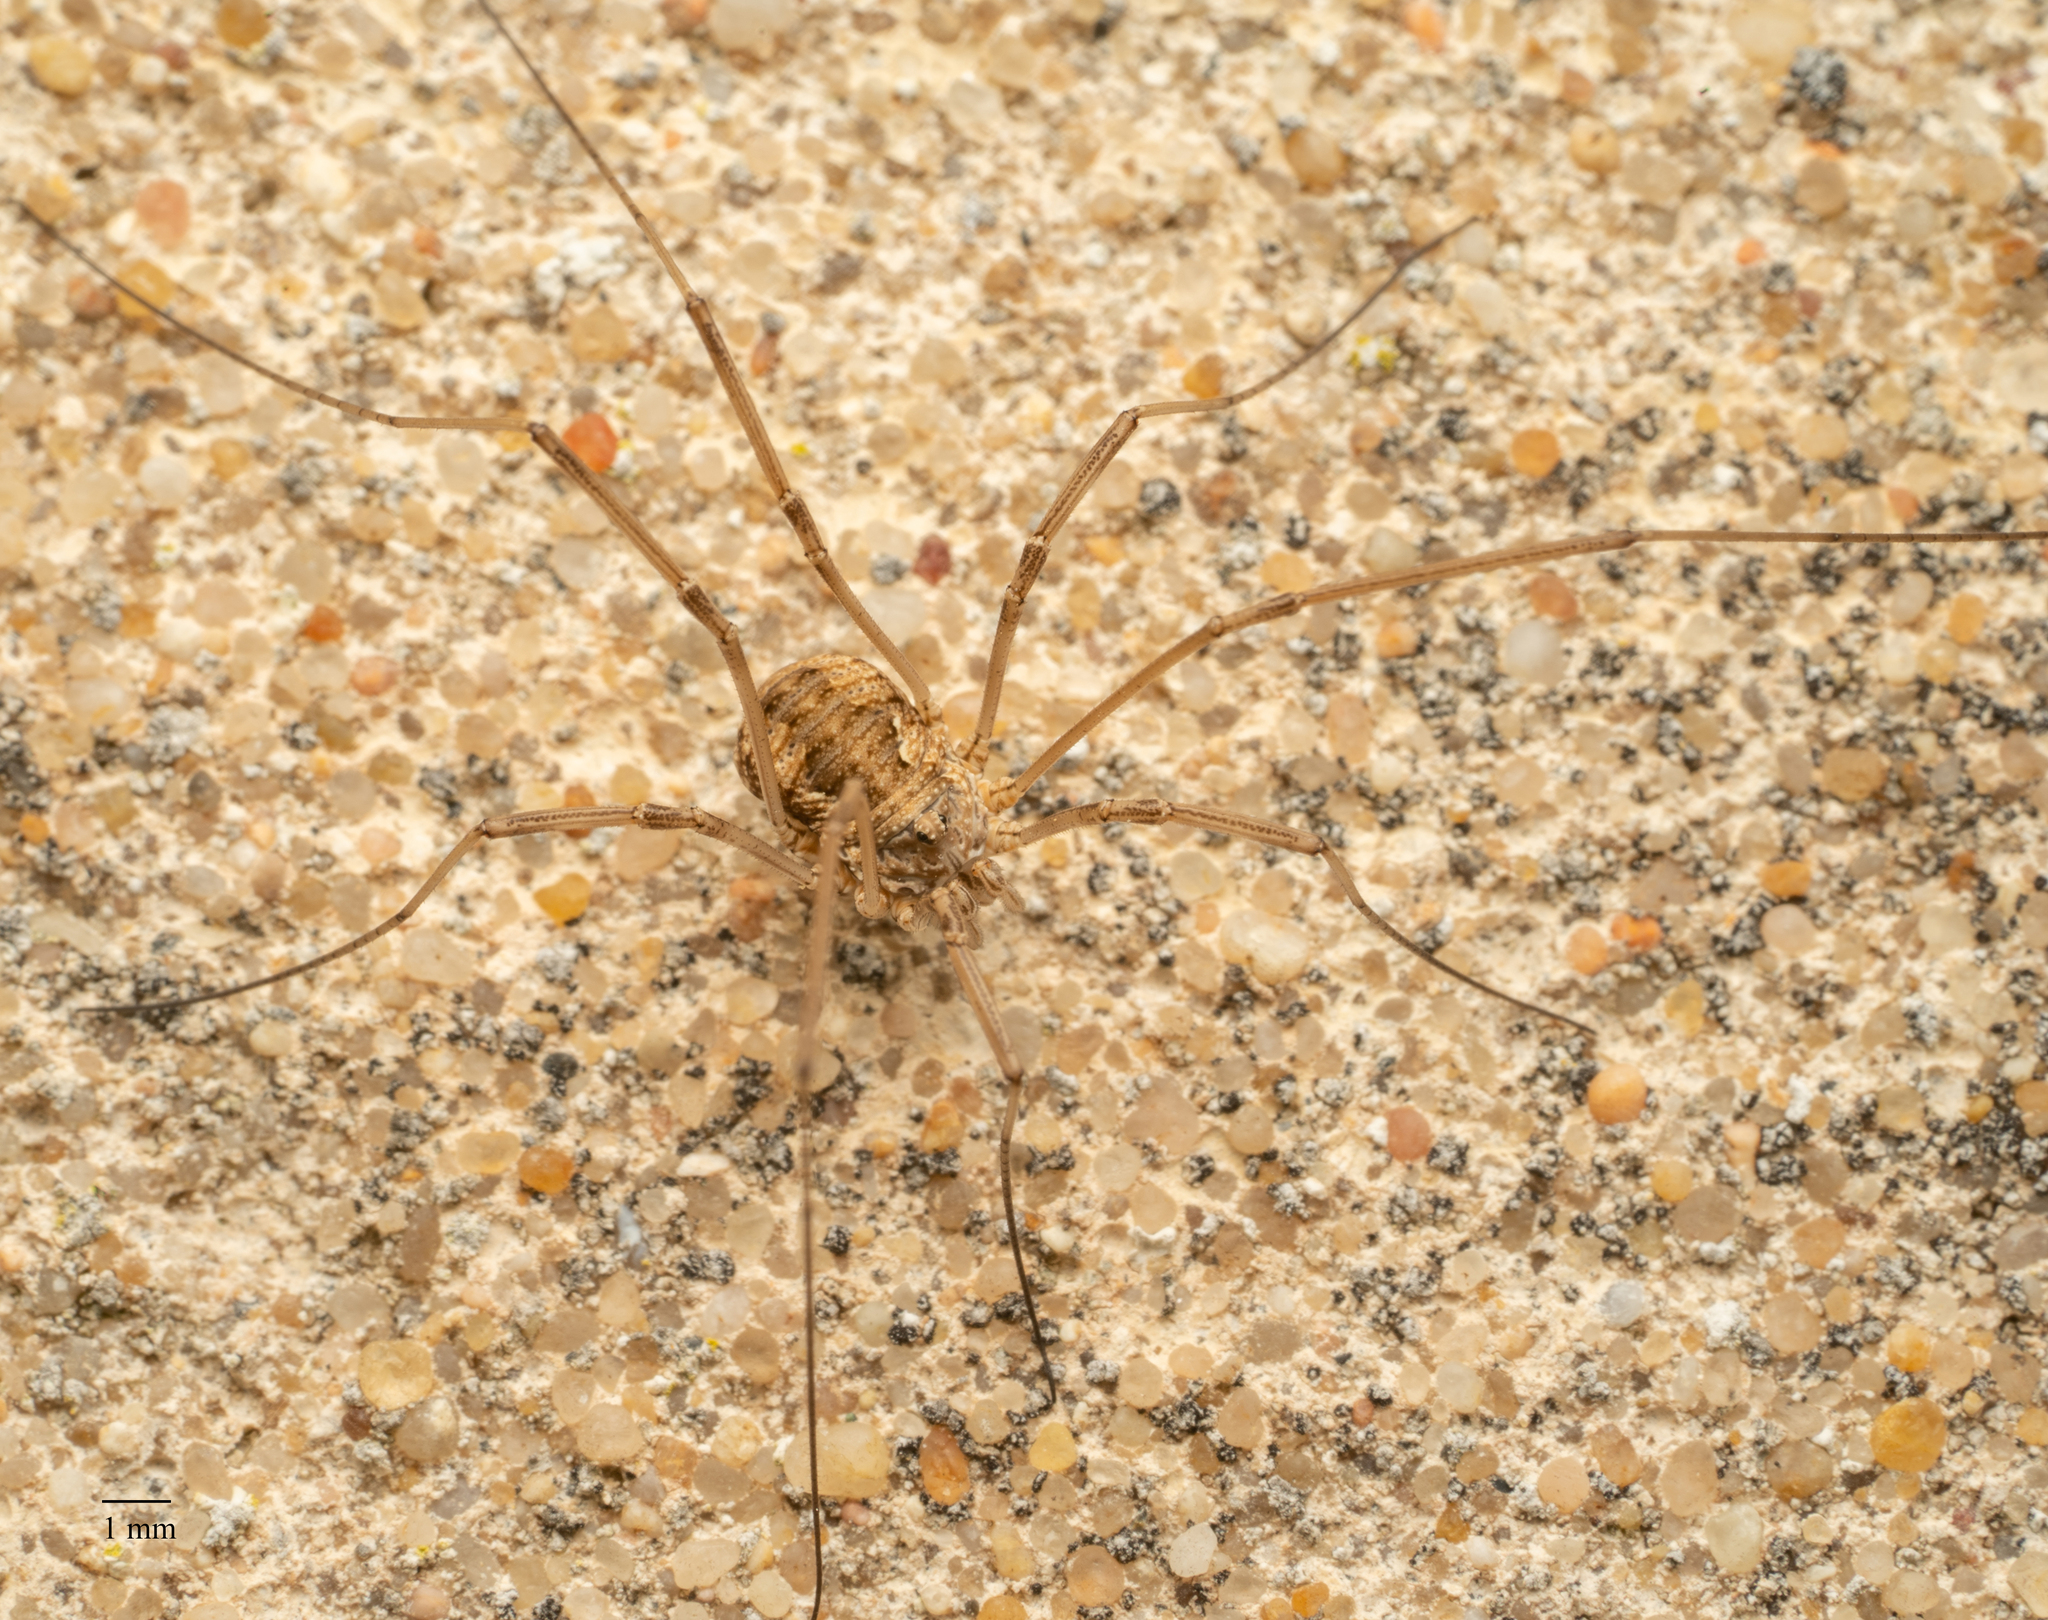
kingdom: Animalia
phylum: Arthropoda
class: Arachnida
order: Opiliones
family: Phalangiidae
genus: Phalangium
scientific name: Phalangium opilio
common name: Daddy longleg
